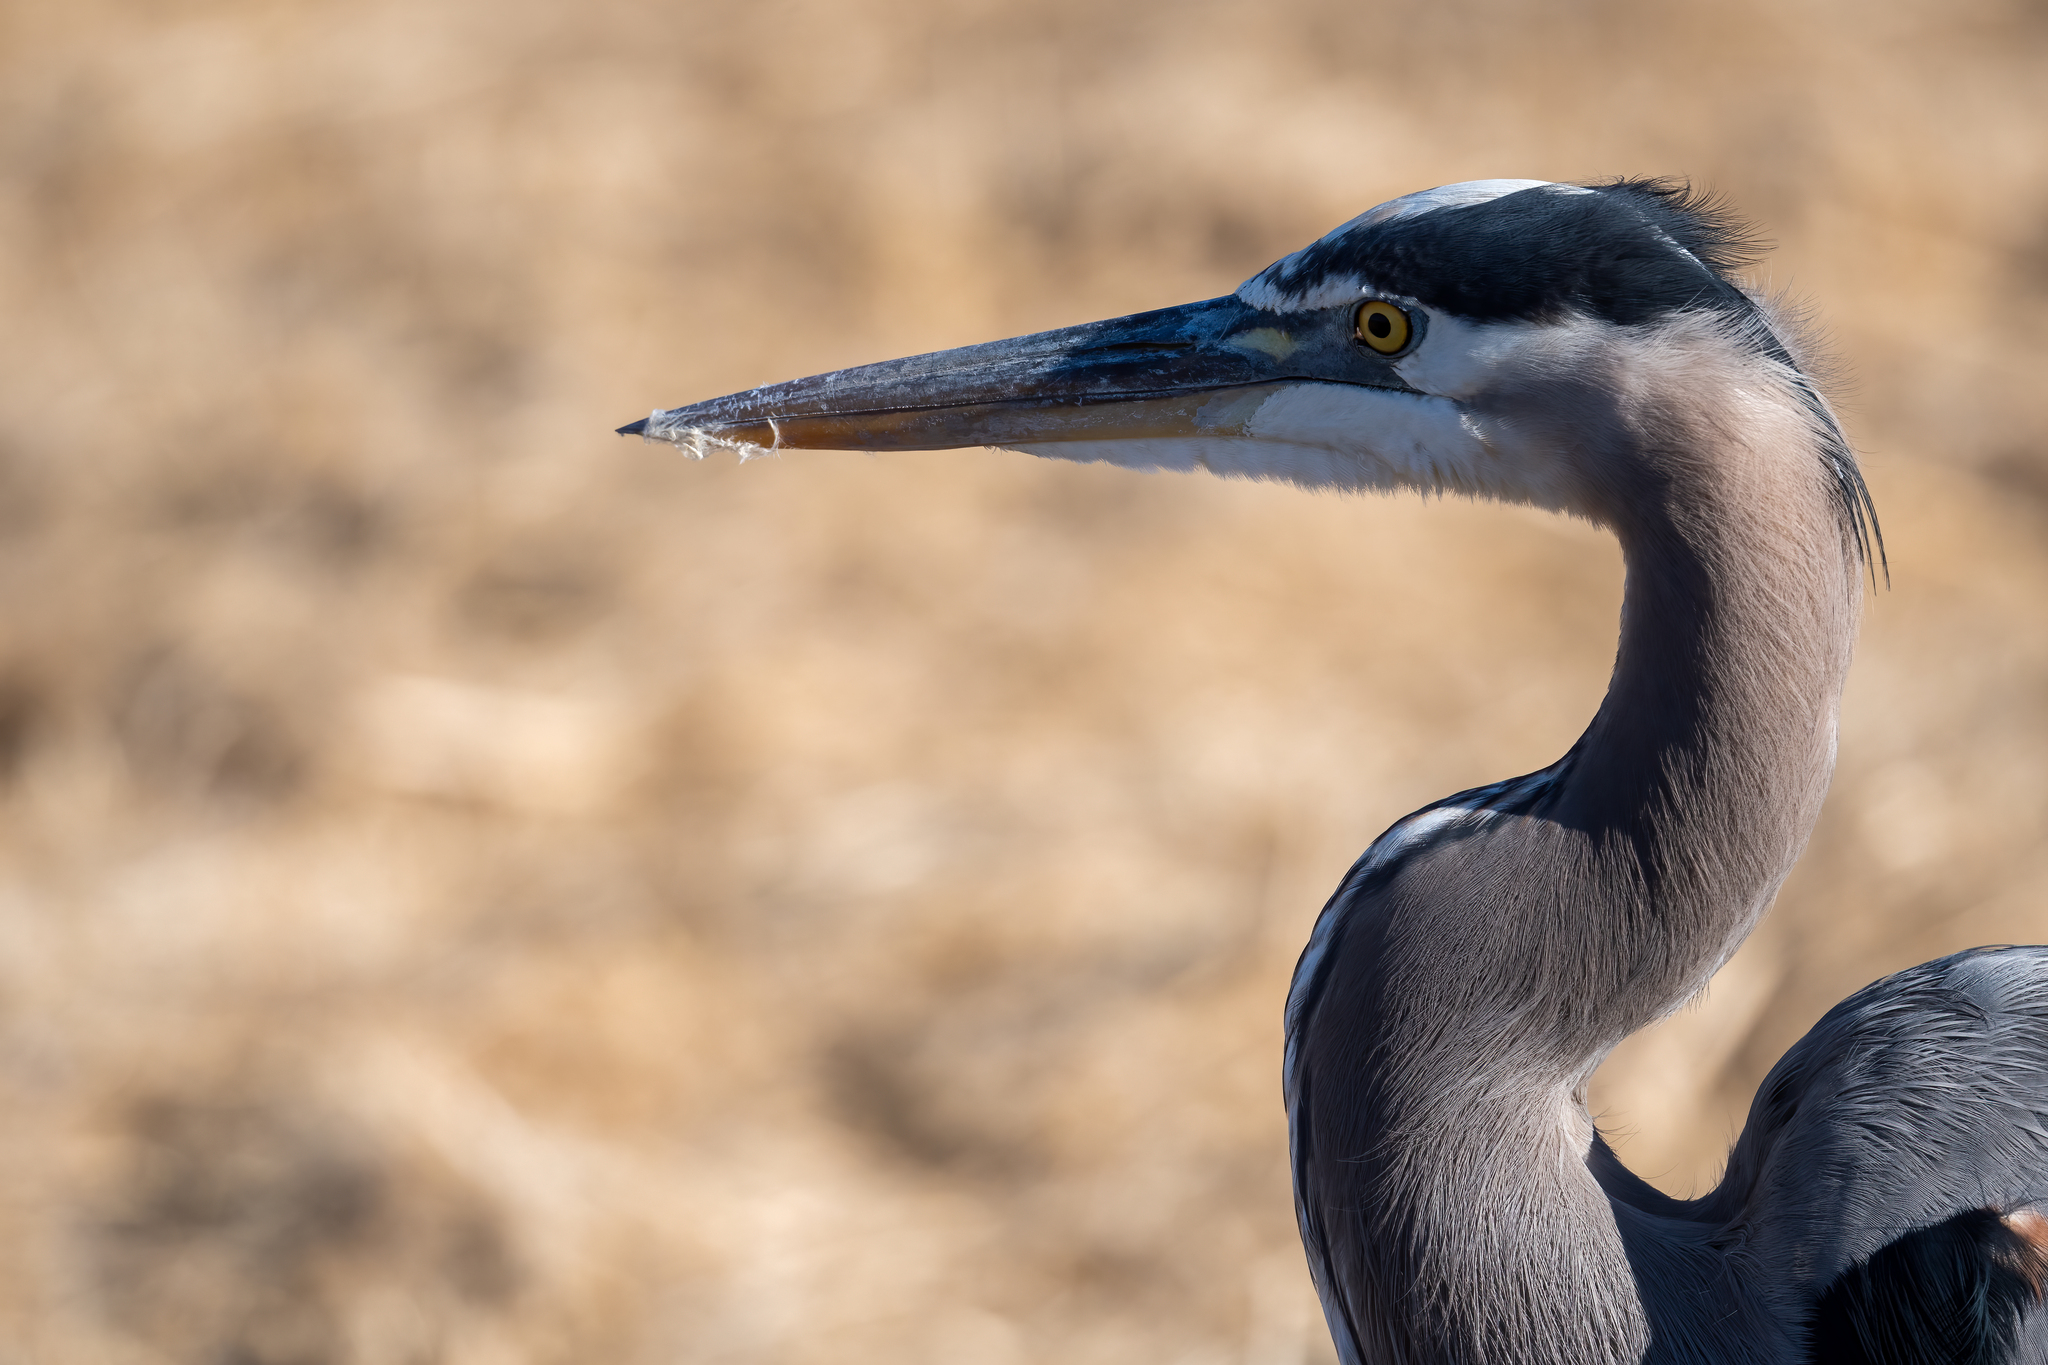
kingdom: Animalia
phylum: Chordata
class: Aves
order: Pelecaniformes
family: Ardeidae
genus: Ardea
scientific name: Ardea herodias
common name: Great blue heron
